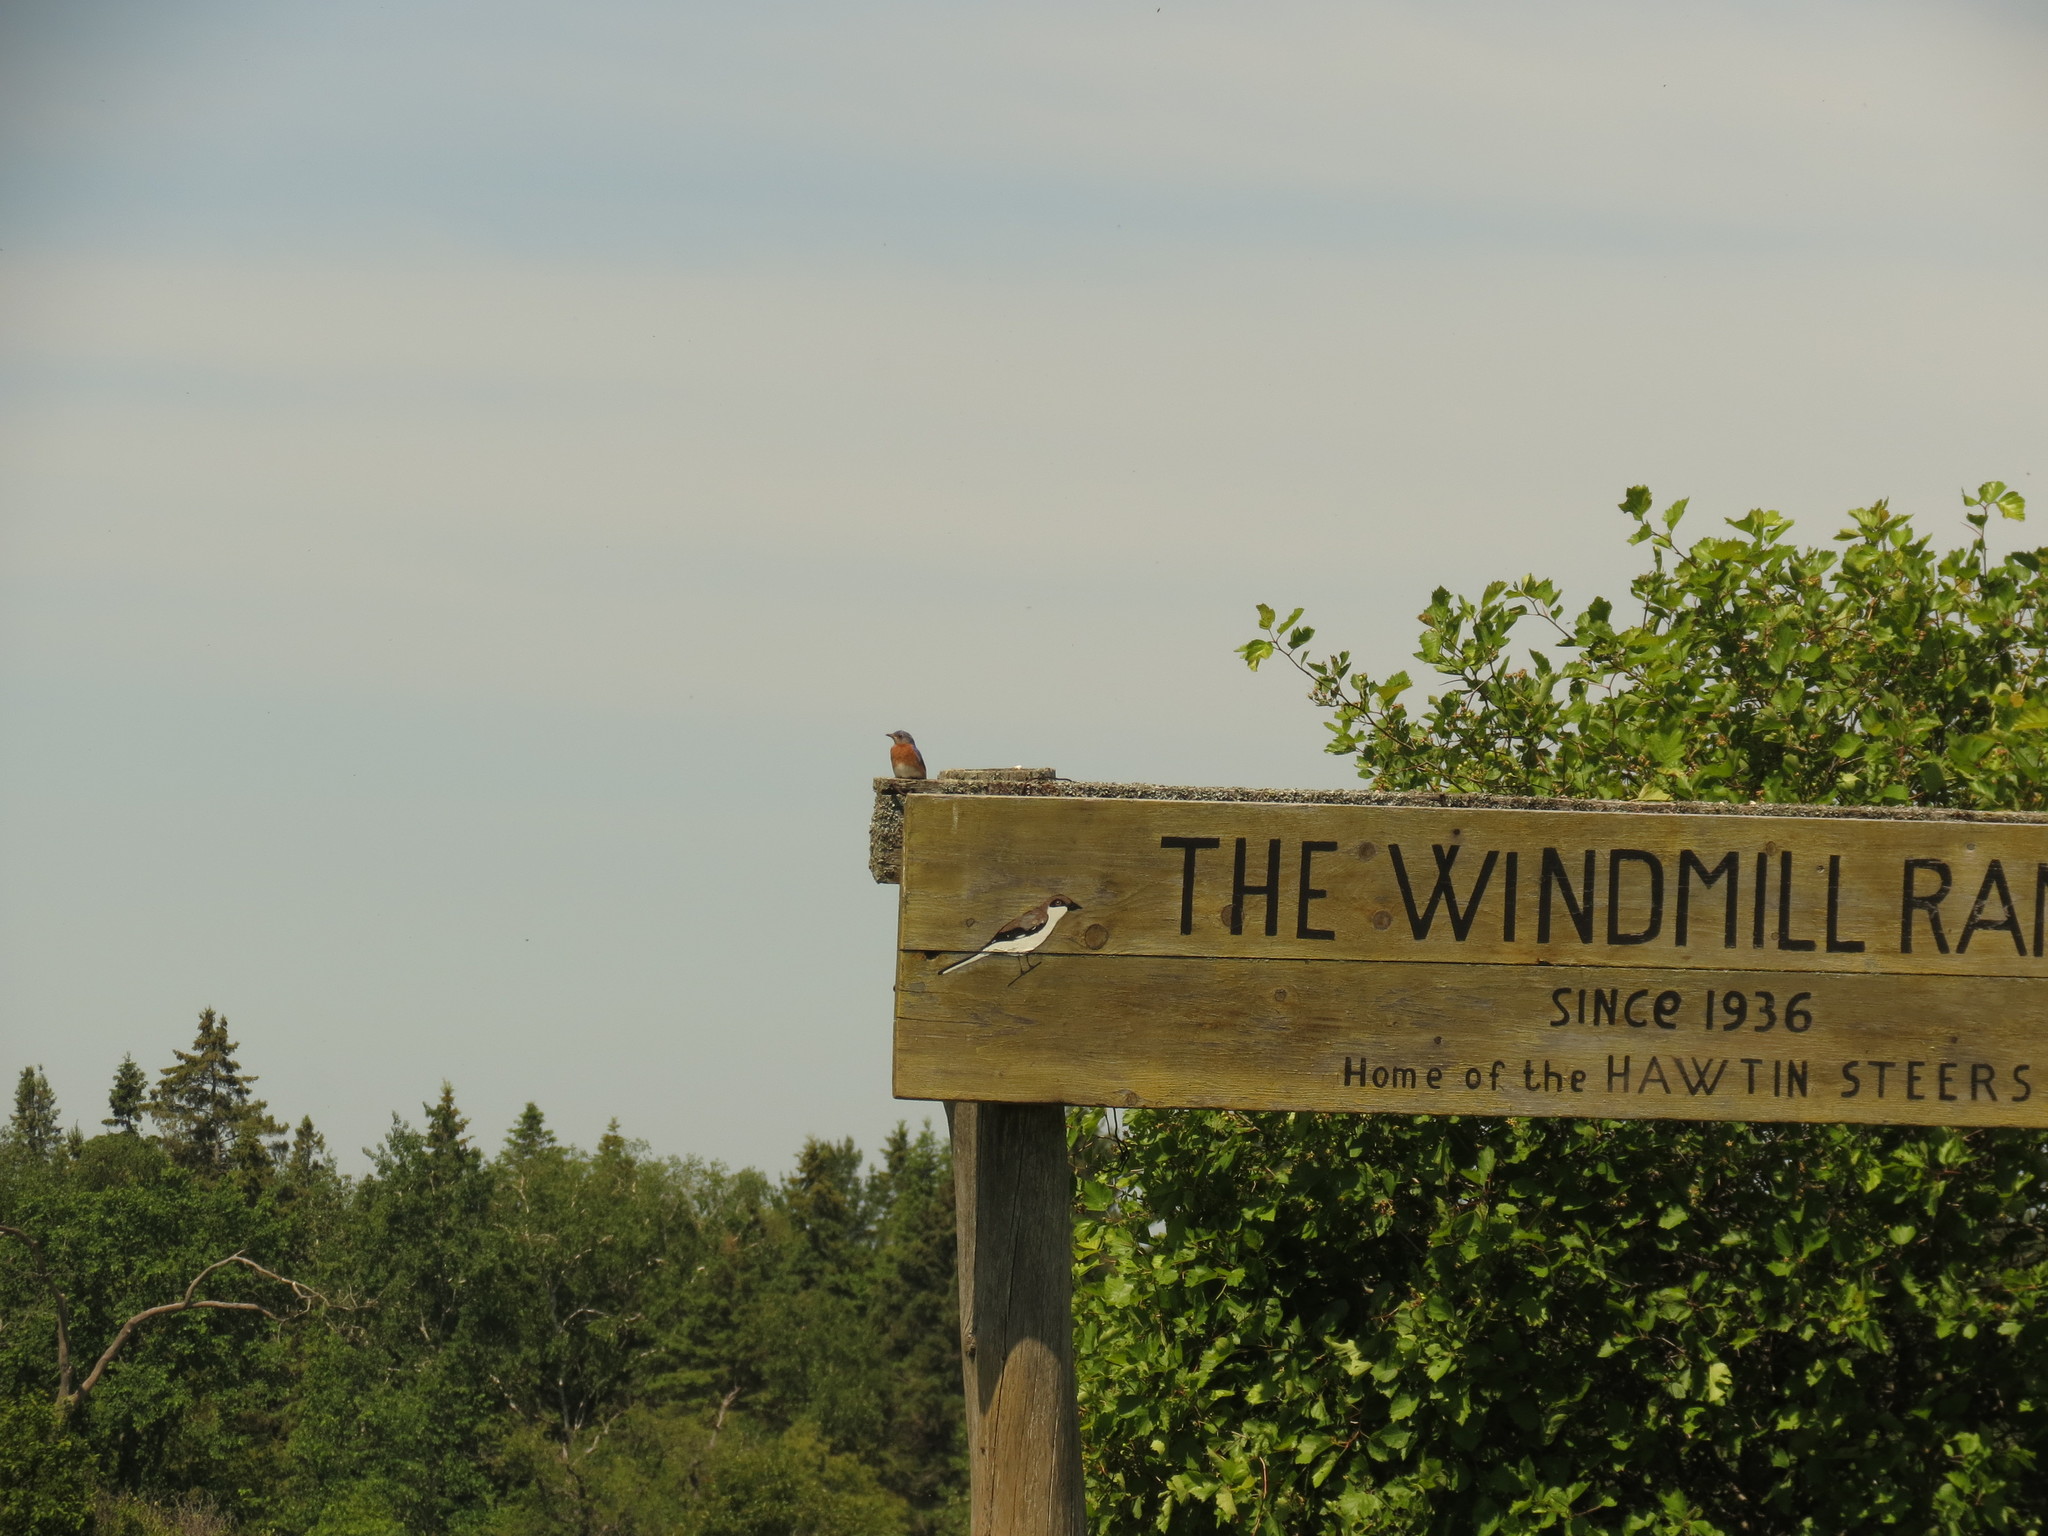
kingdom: Animalia
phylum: Chordata
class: Aves
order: Passeriformes
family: Turdidae
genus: Sialia
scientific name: Sialia sialis
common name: Eastern bluebird
